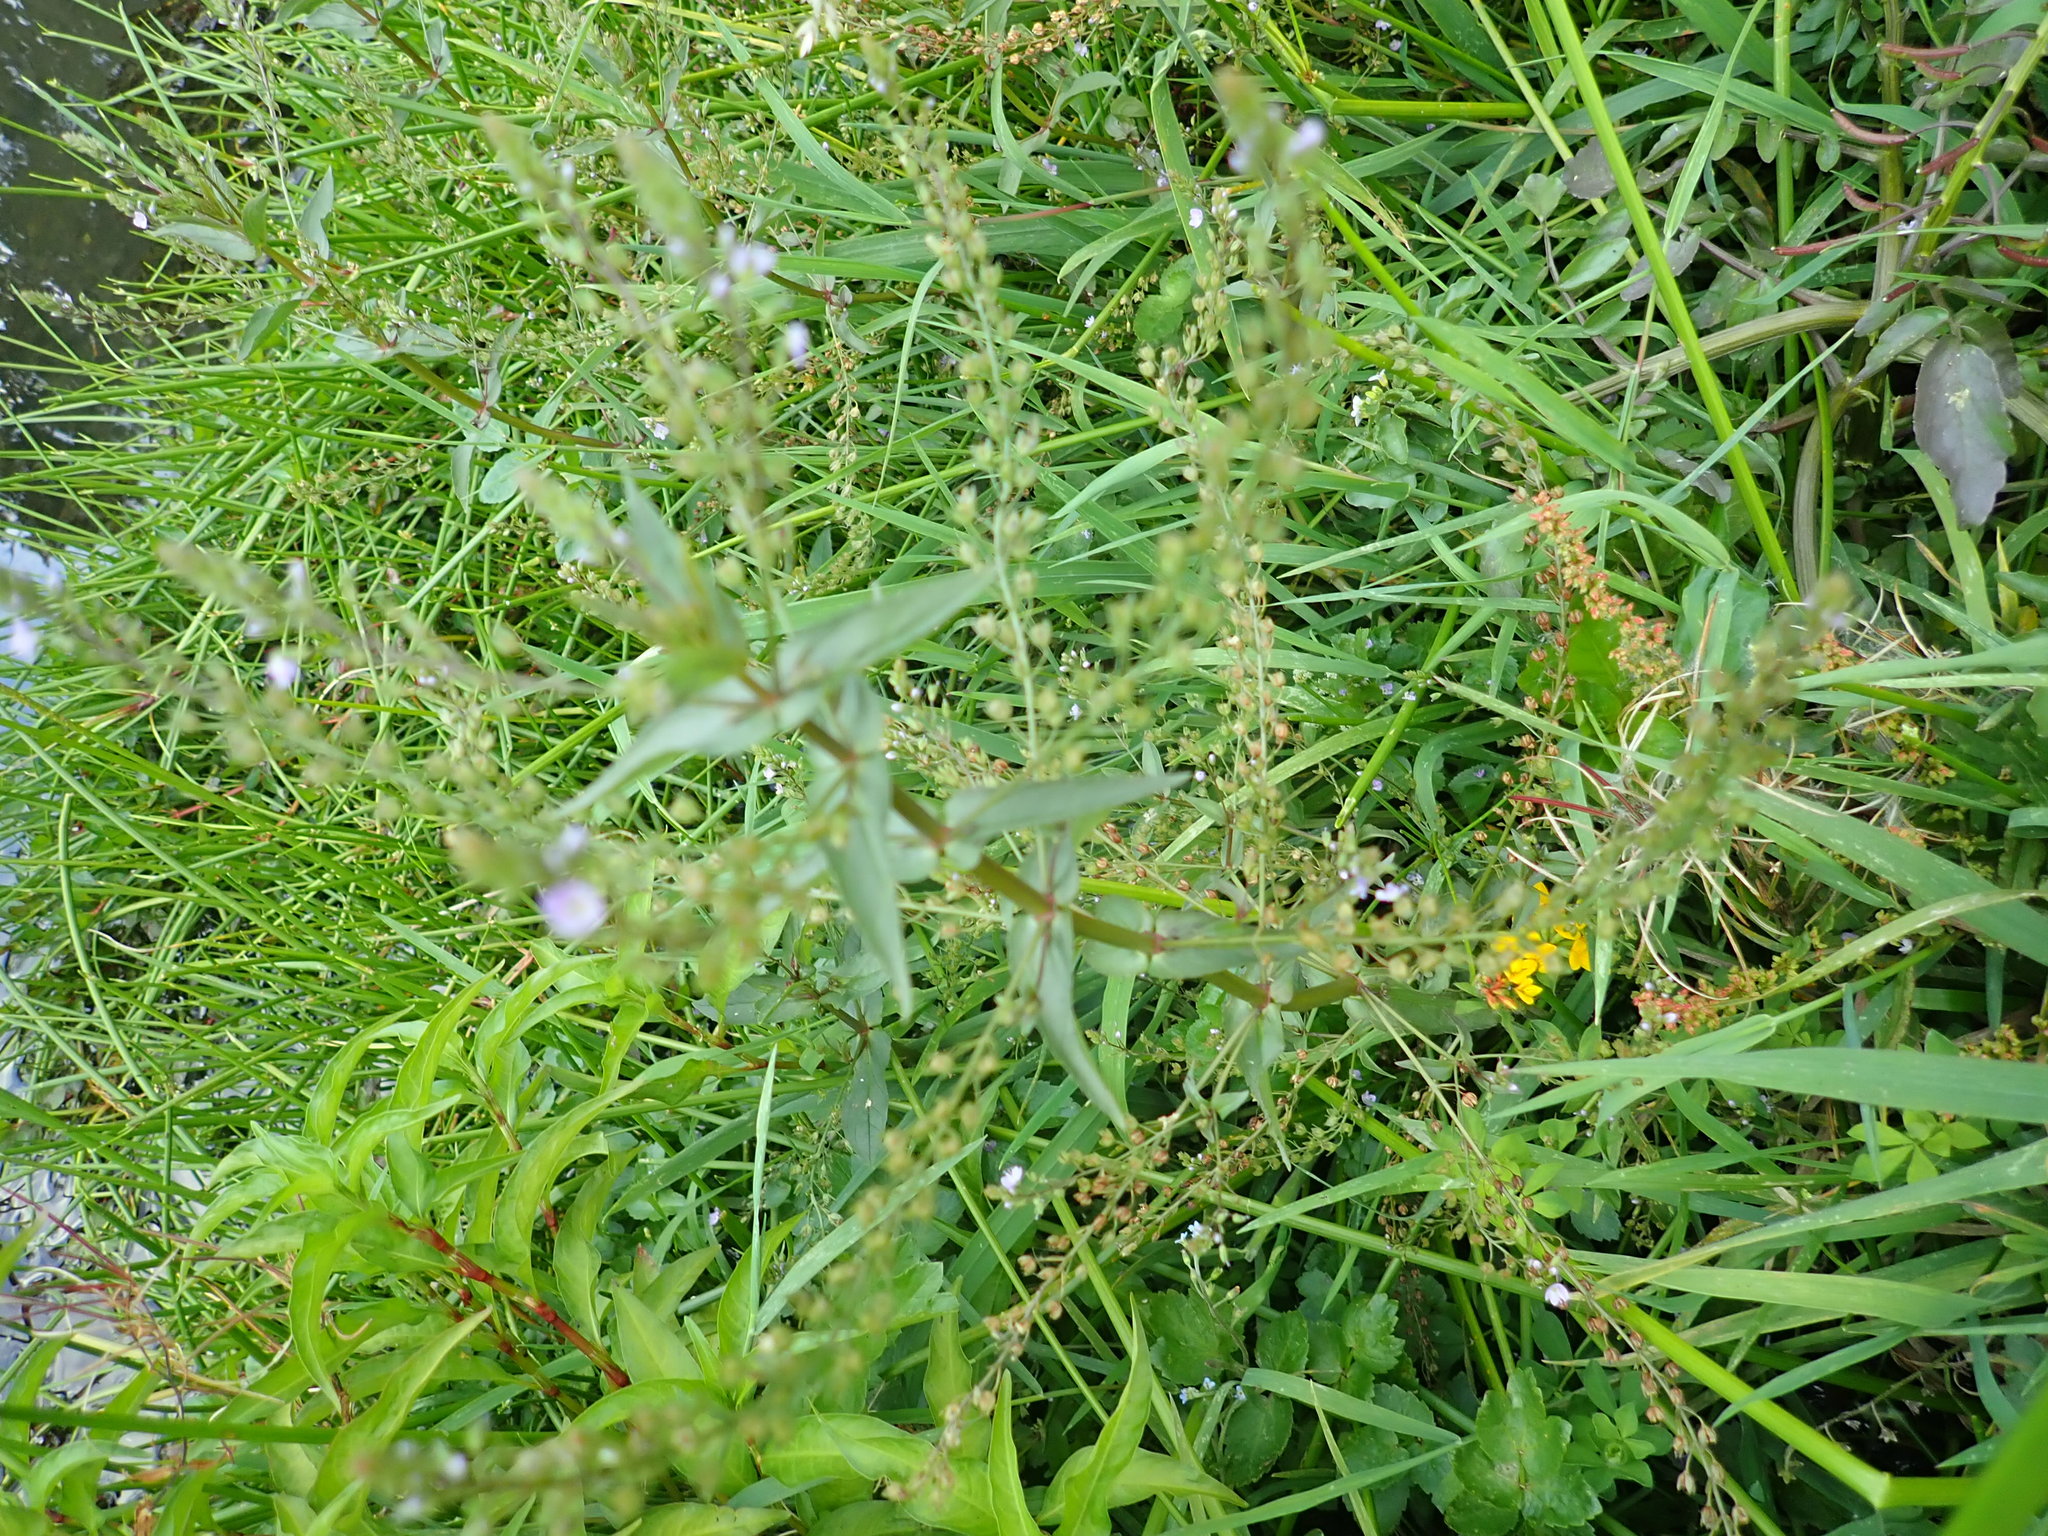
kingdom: Plantae
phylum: Tracheophyta
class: Magnoliopsida
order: Lamiales
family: Plantaginaceae
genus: Veronica
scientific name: Veronica anagallis-aquatica
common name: Water speedwell
